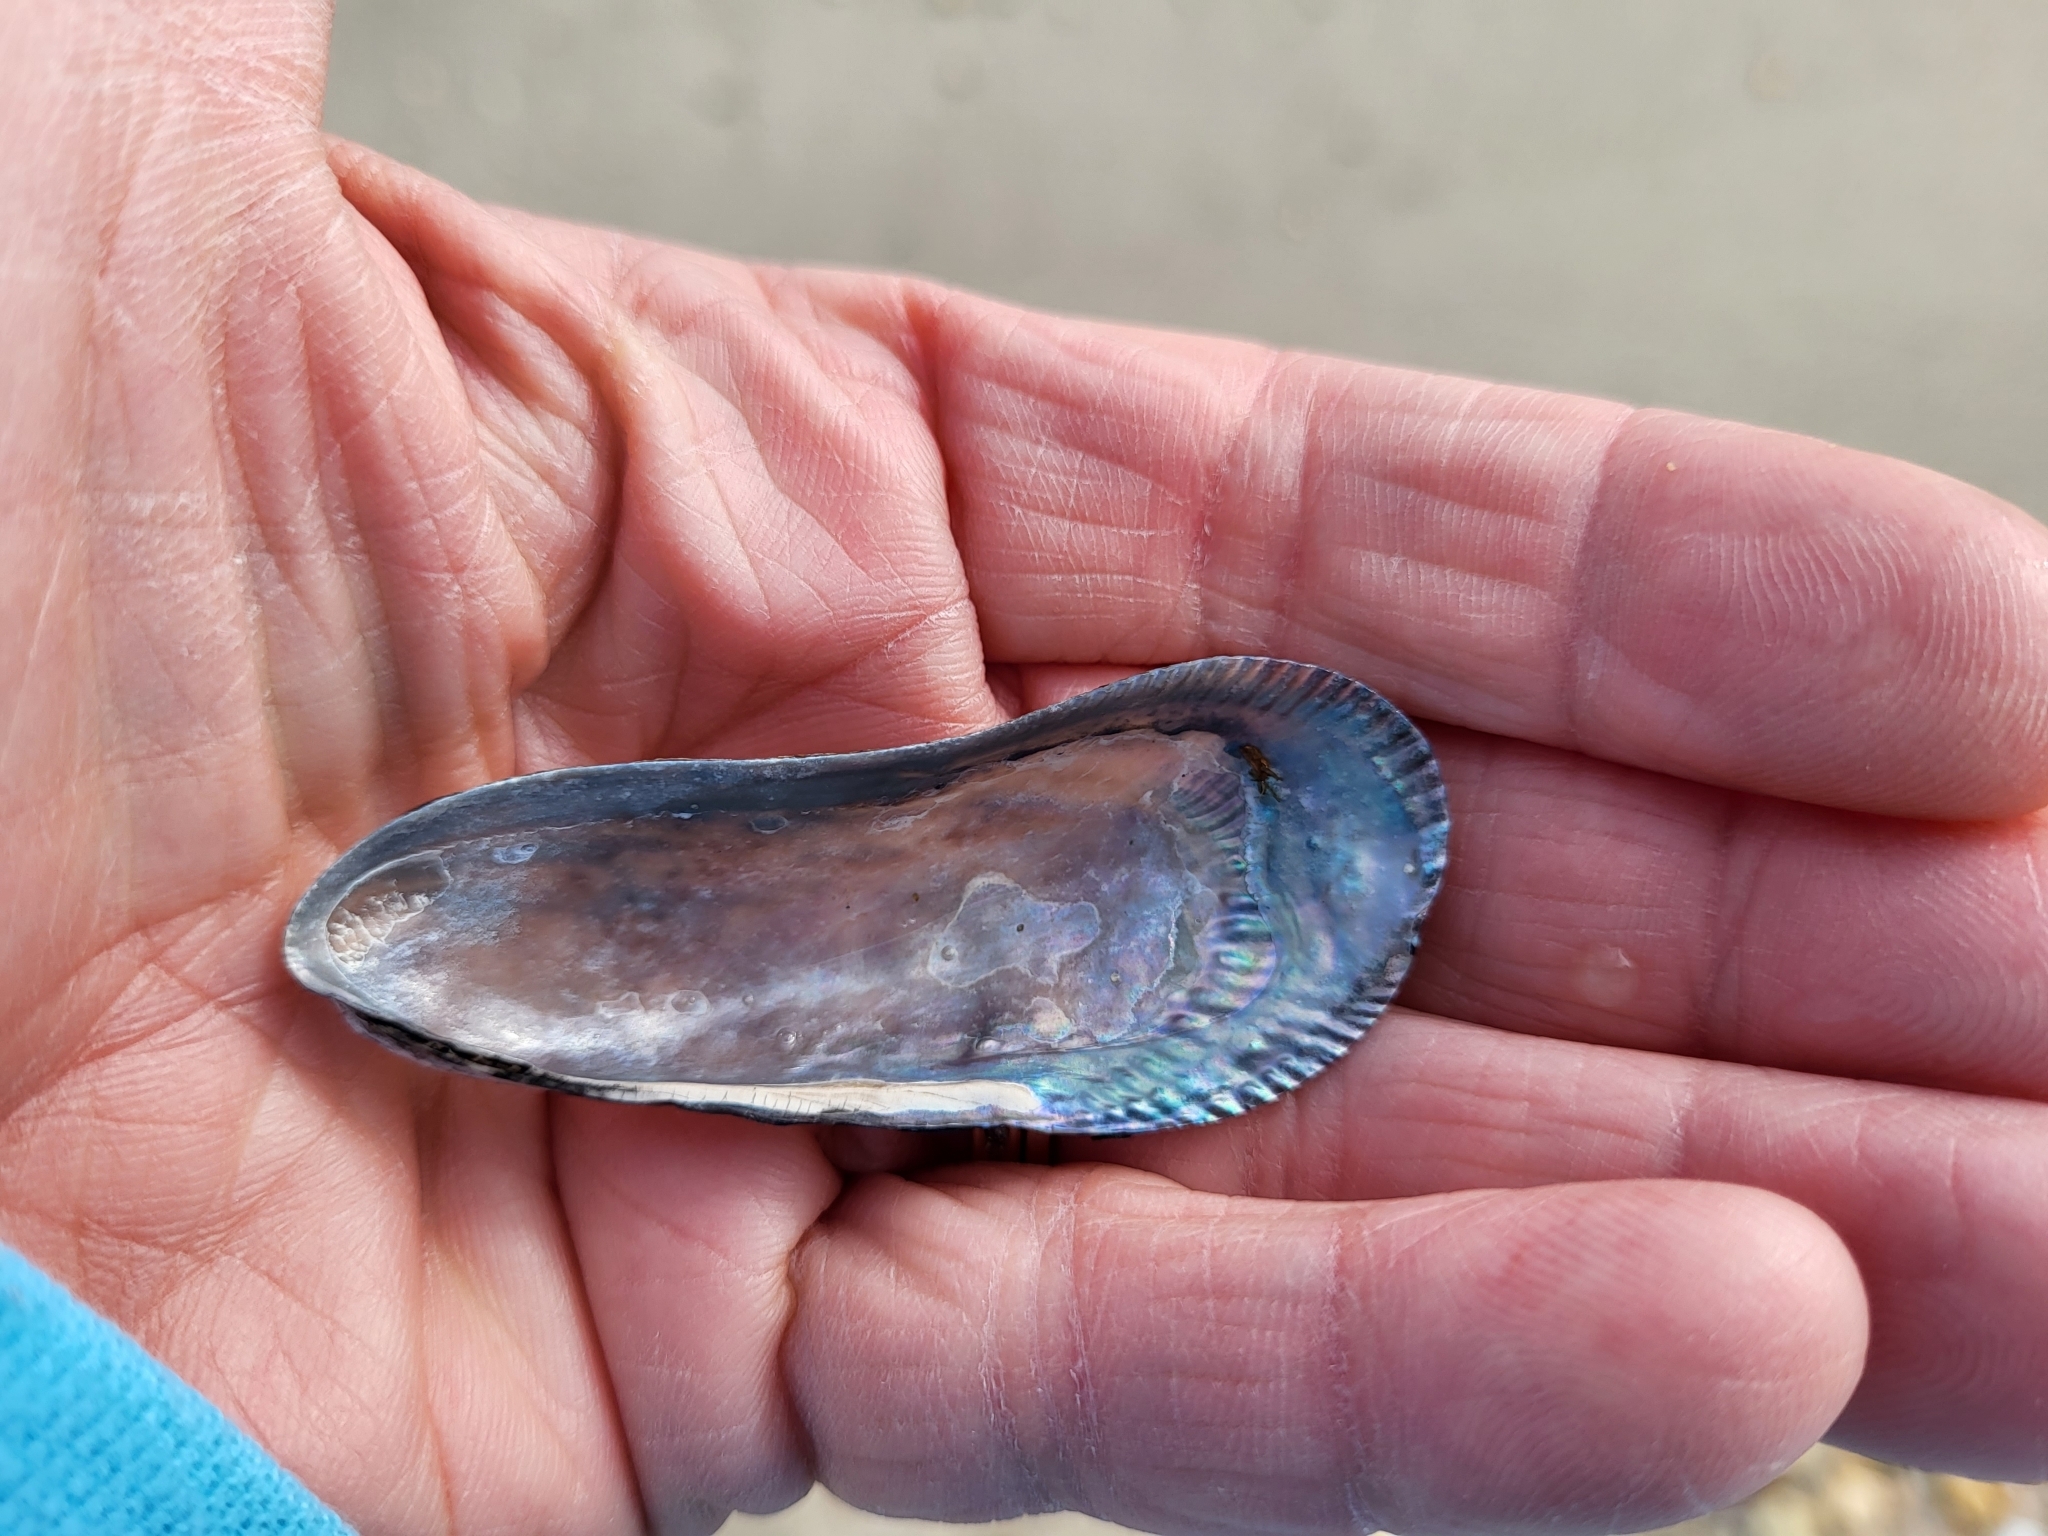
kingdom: Animalia
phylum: Mollusca
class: Bivalvia
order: Mytilida
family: Mytilidae
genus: Geukensia
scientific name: Geukensia demissa
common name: Ribbed mussel
